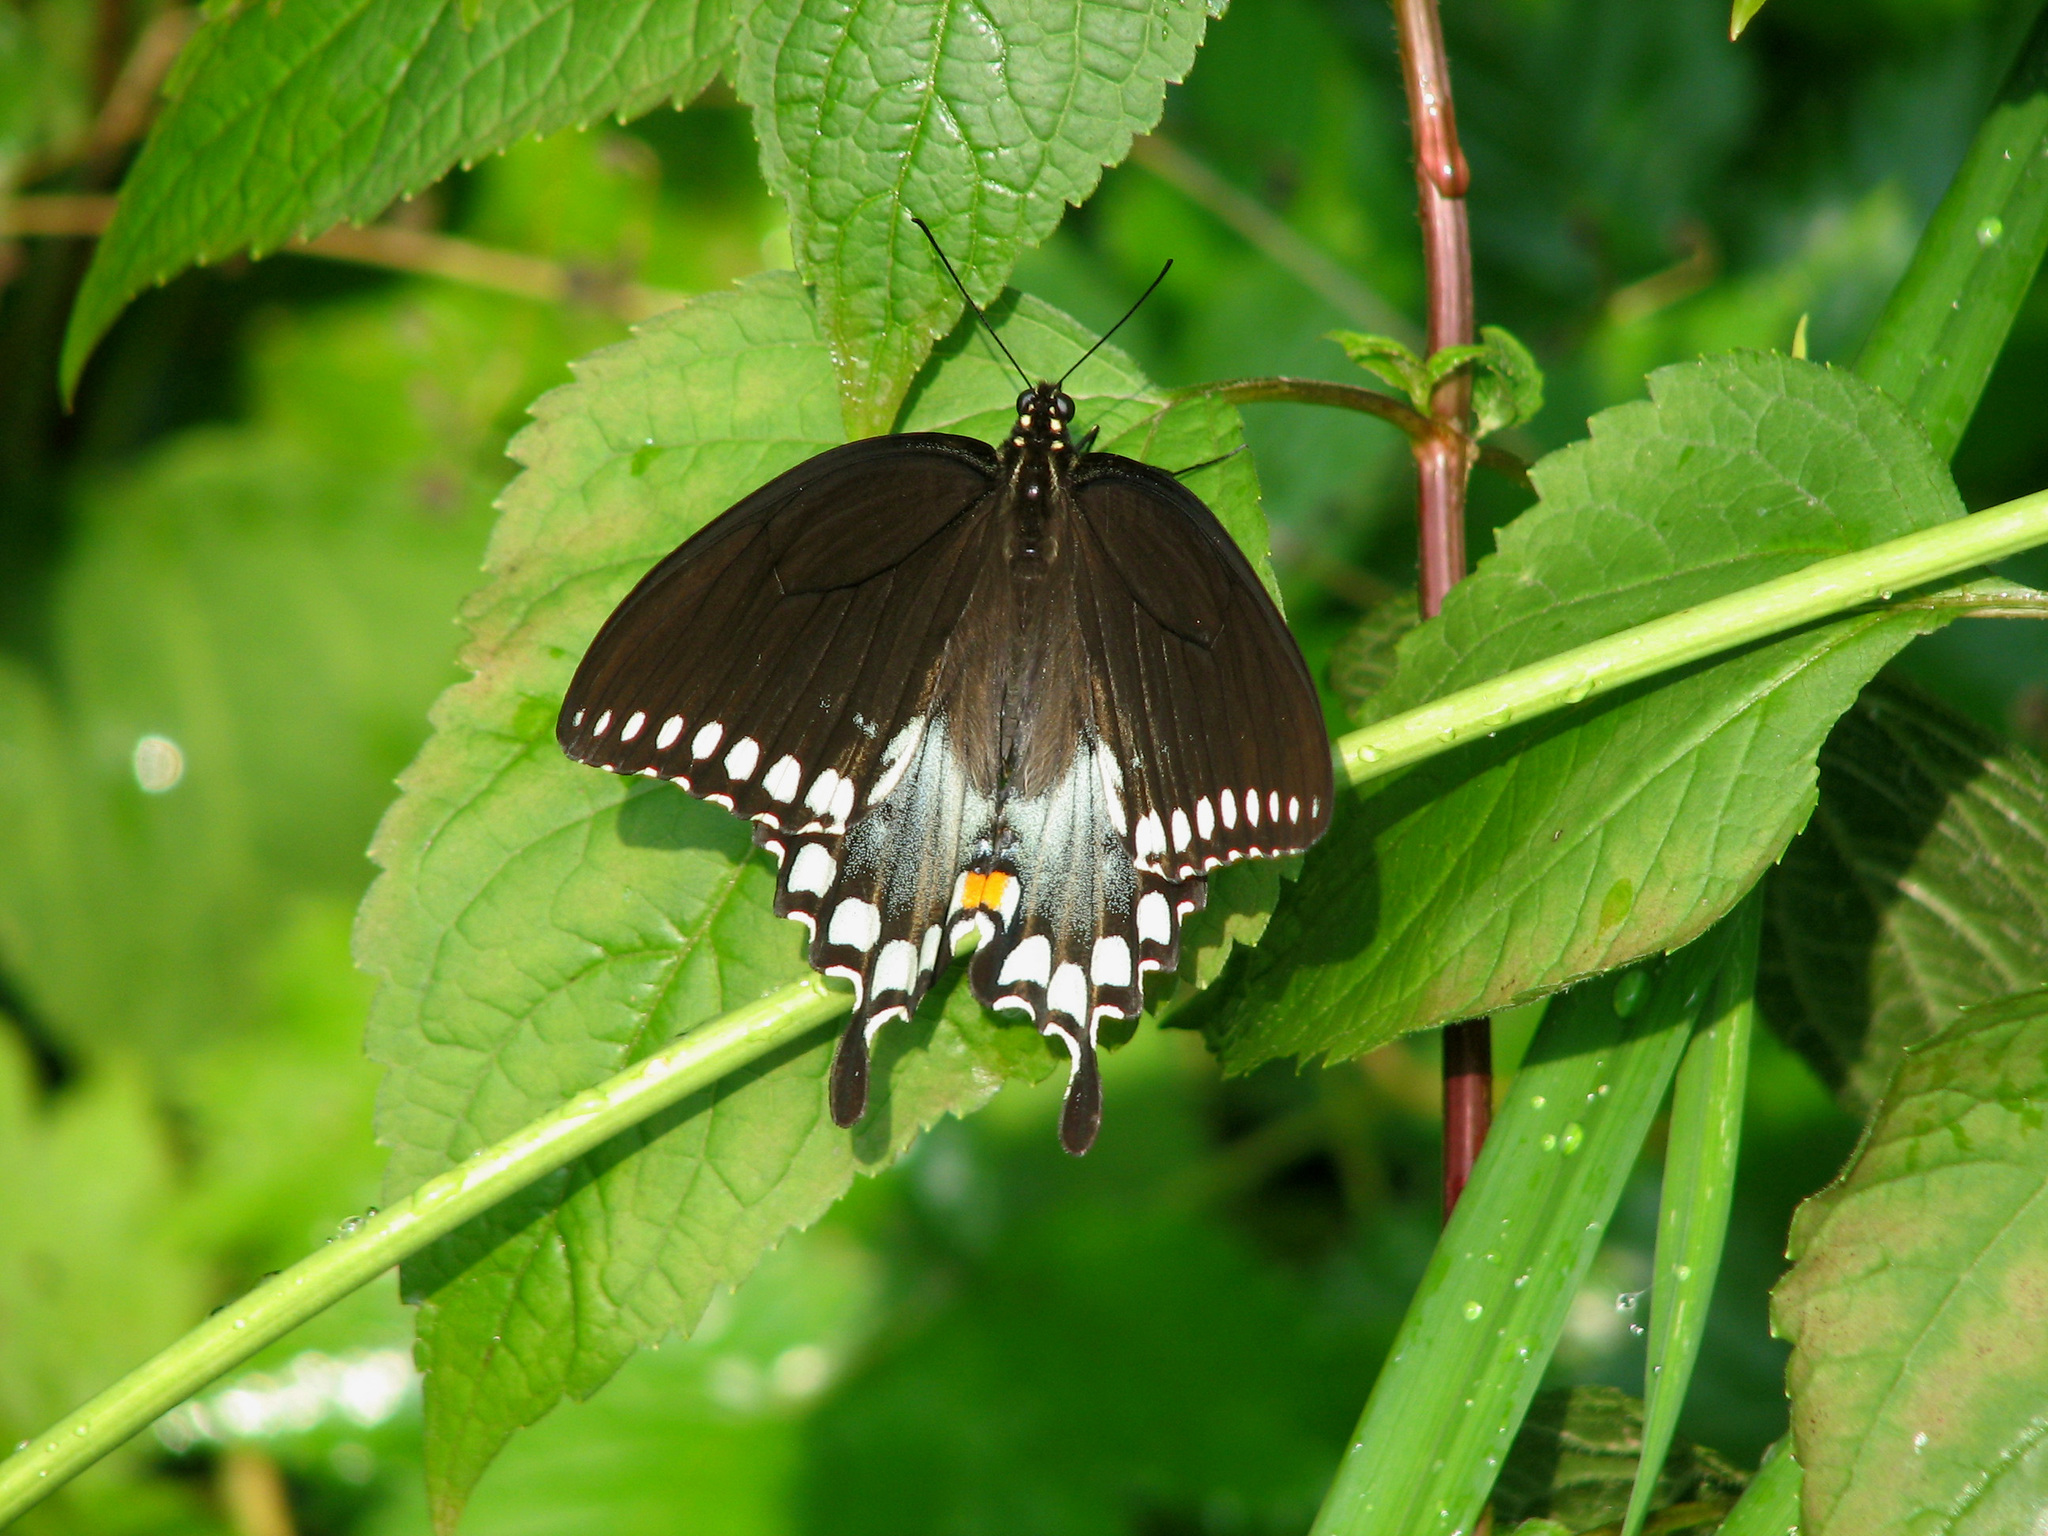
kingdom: Animalia
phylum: Arthropoda
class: Insecta
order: Lepidoptera
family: Papilionidae
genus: Papilio
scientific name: Papilio troilus
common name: Spicebush swallowtail
